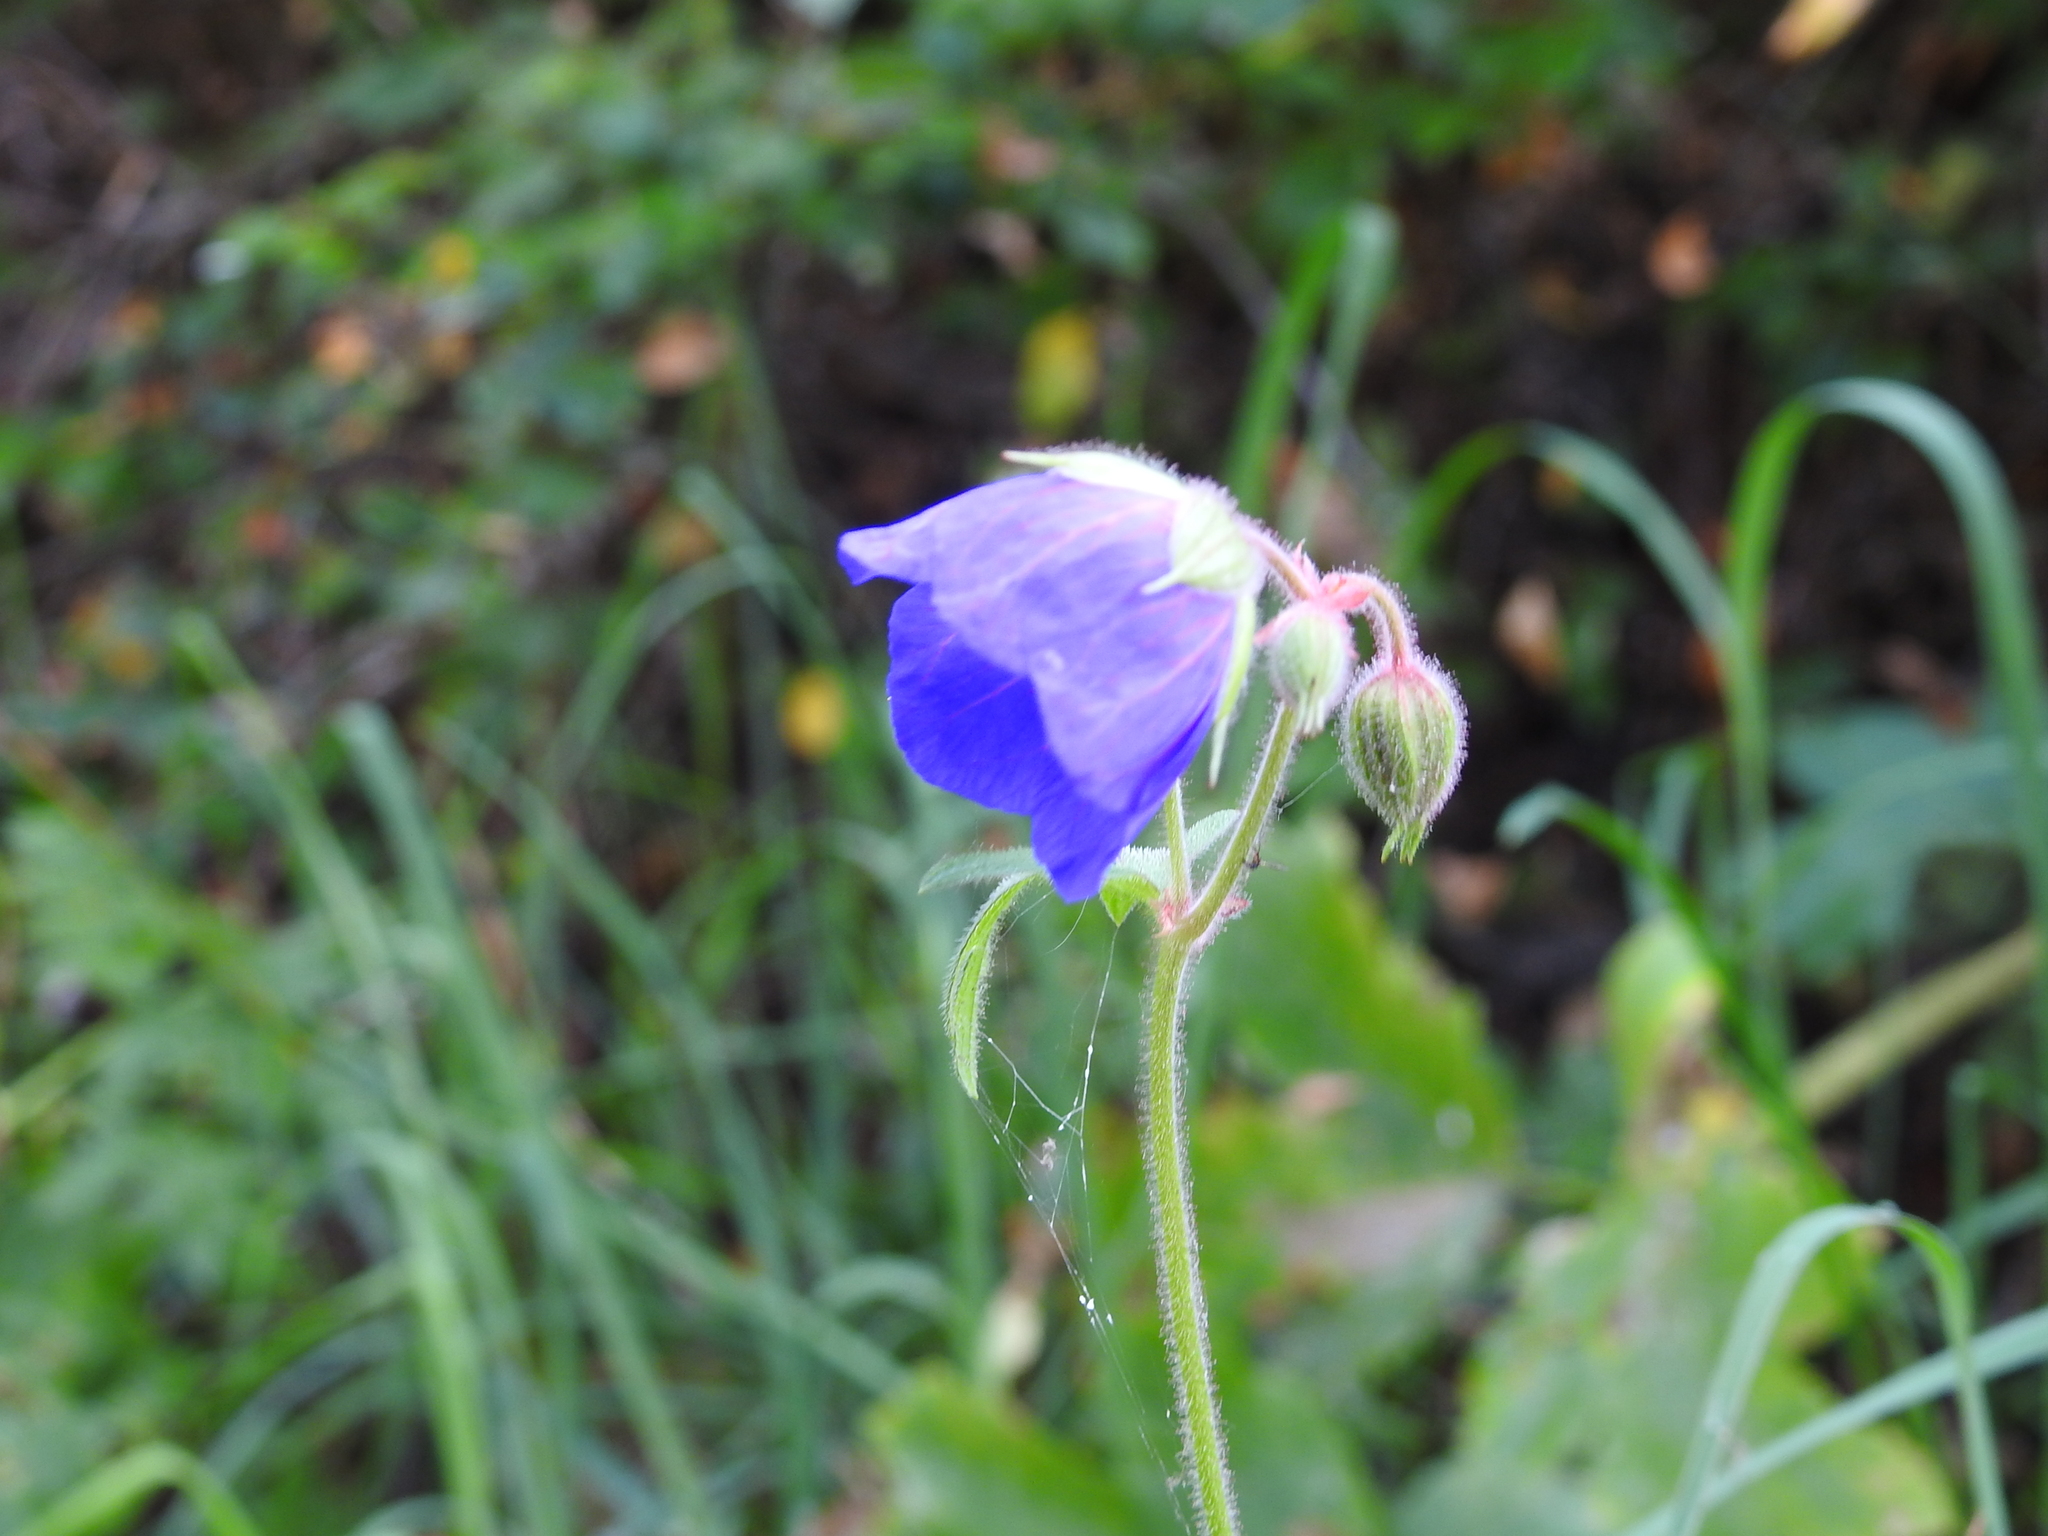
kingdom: Plantae
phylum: Tracheophyta
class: Magnoliopsida
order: Geraniales
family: Geraniaceae
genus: Geranium
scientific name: Geranium pratense
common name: Meadow crane's-bill
